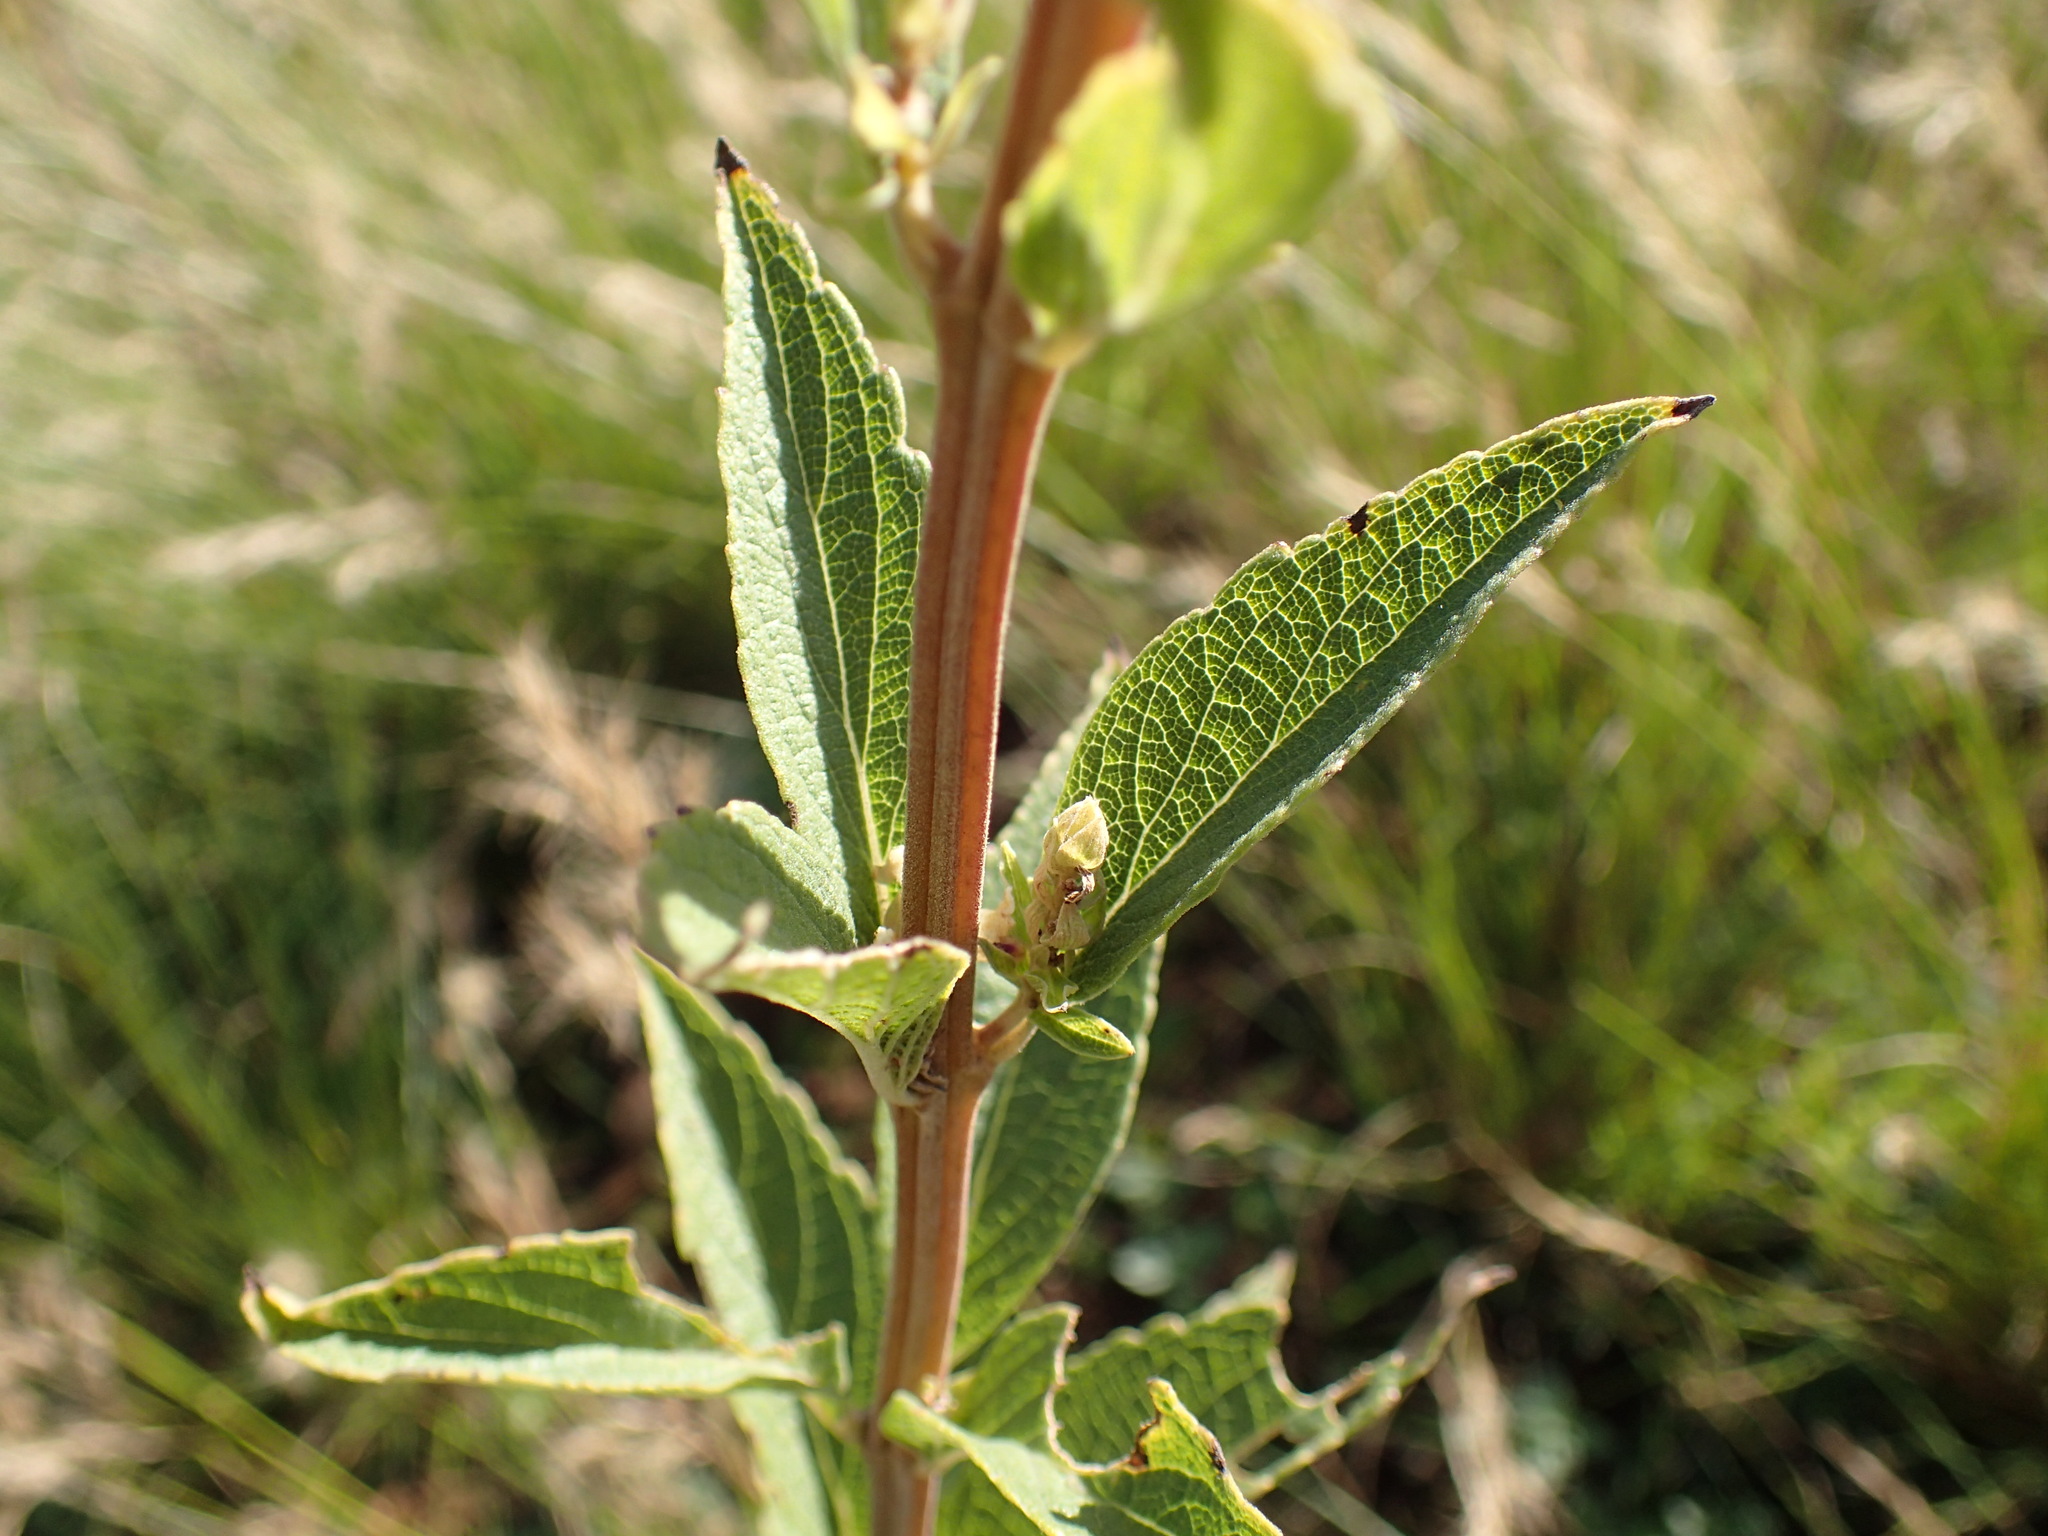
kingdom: Plantae
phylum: Tracheophyta
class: Magnoliopsida
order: Lamiales
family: Lamiaceae
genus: Coleus
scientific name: Coleus calycinus
